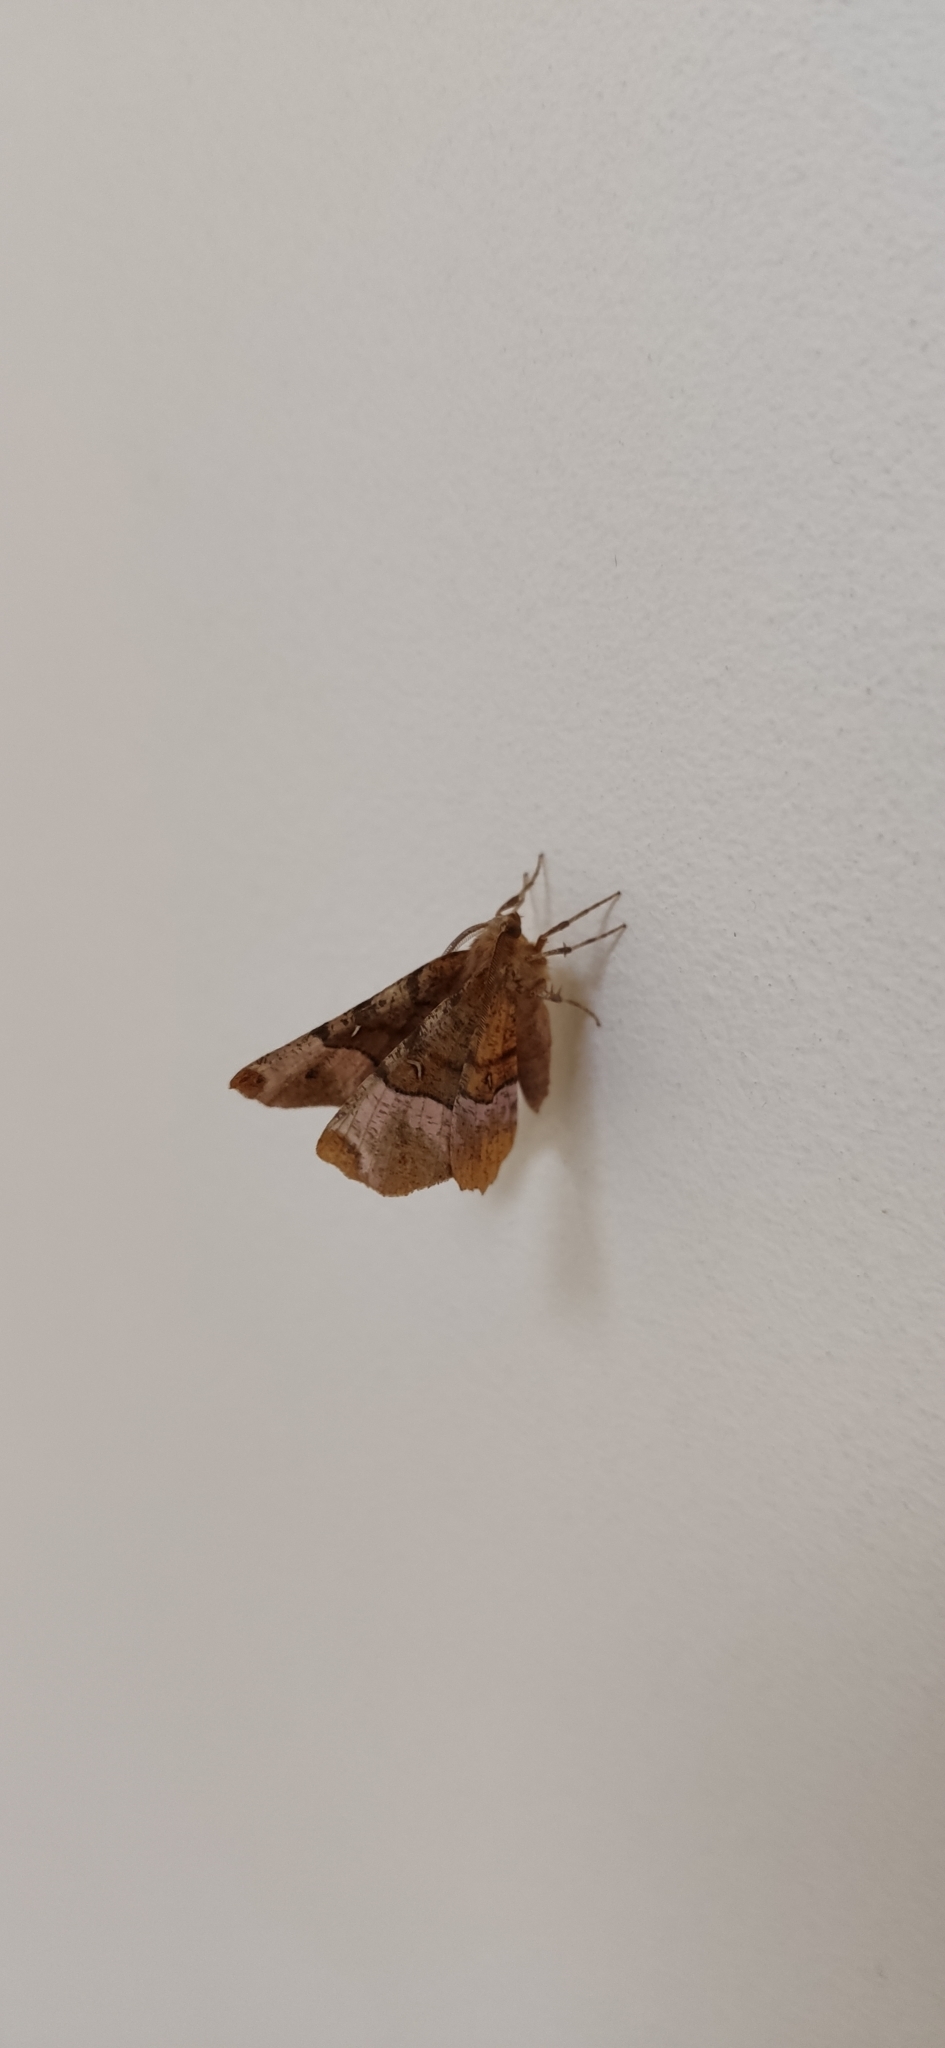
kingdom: Animalia
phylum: Arthropoda
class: Insecta
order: Lepidoptera
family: Geometridae
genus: Selenia
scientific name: Selenia tetralunaria
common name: Purple thorn
